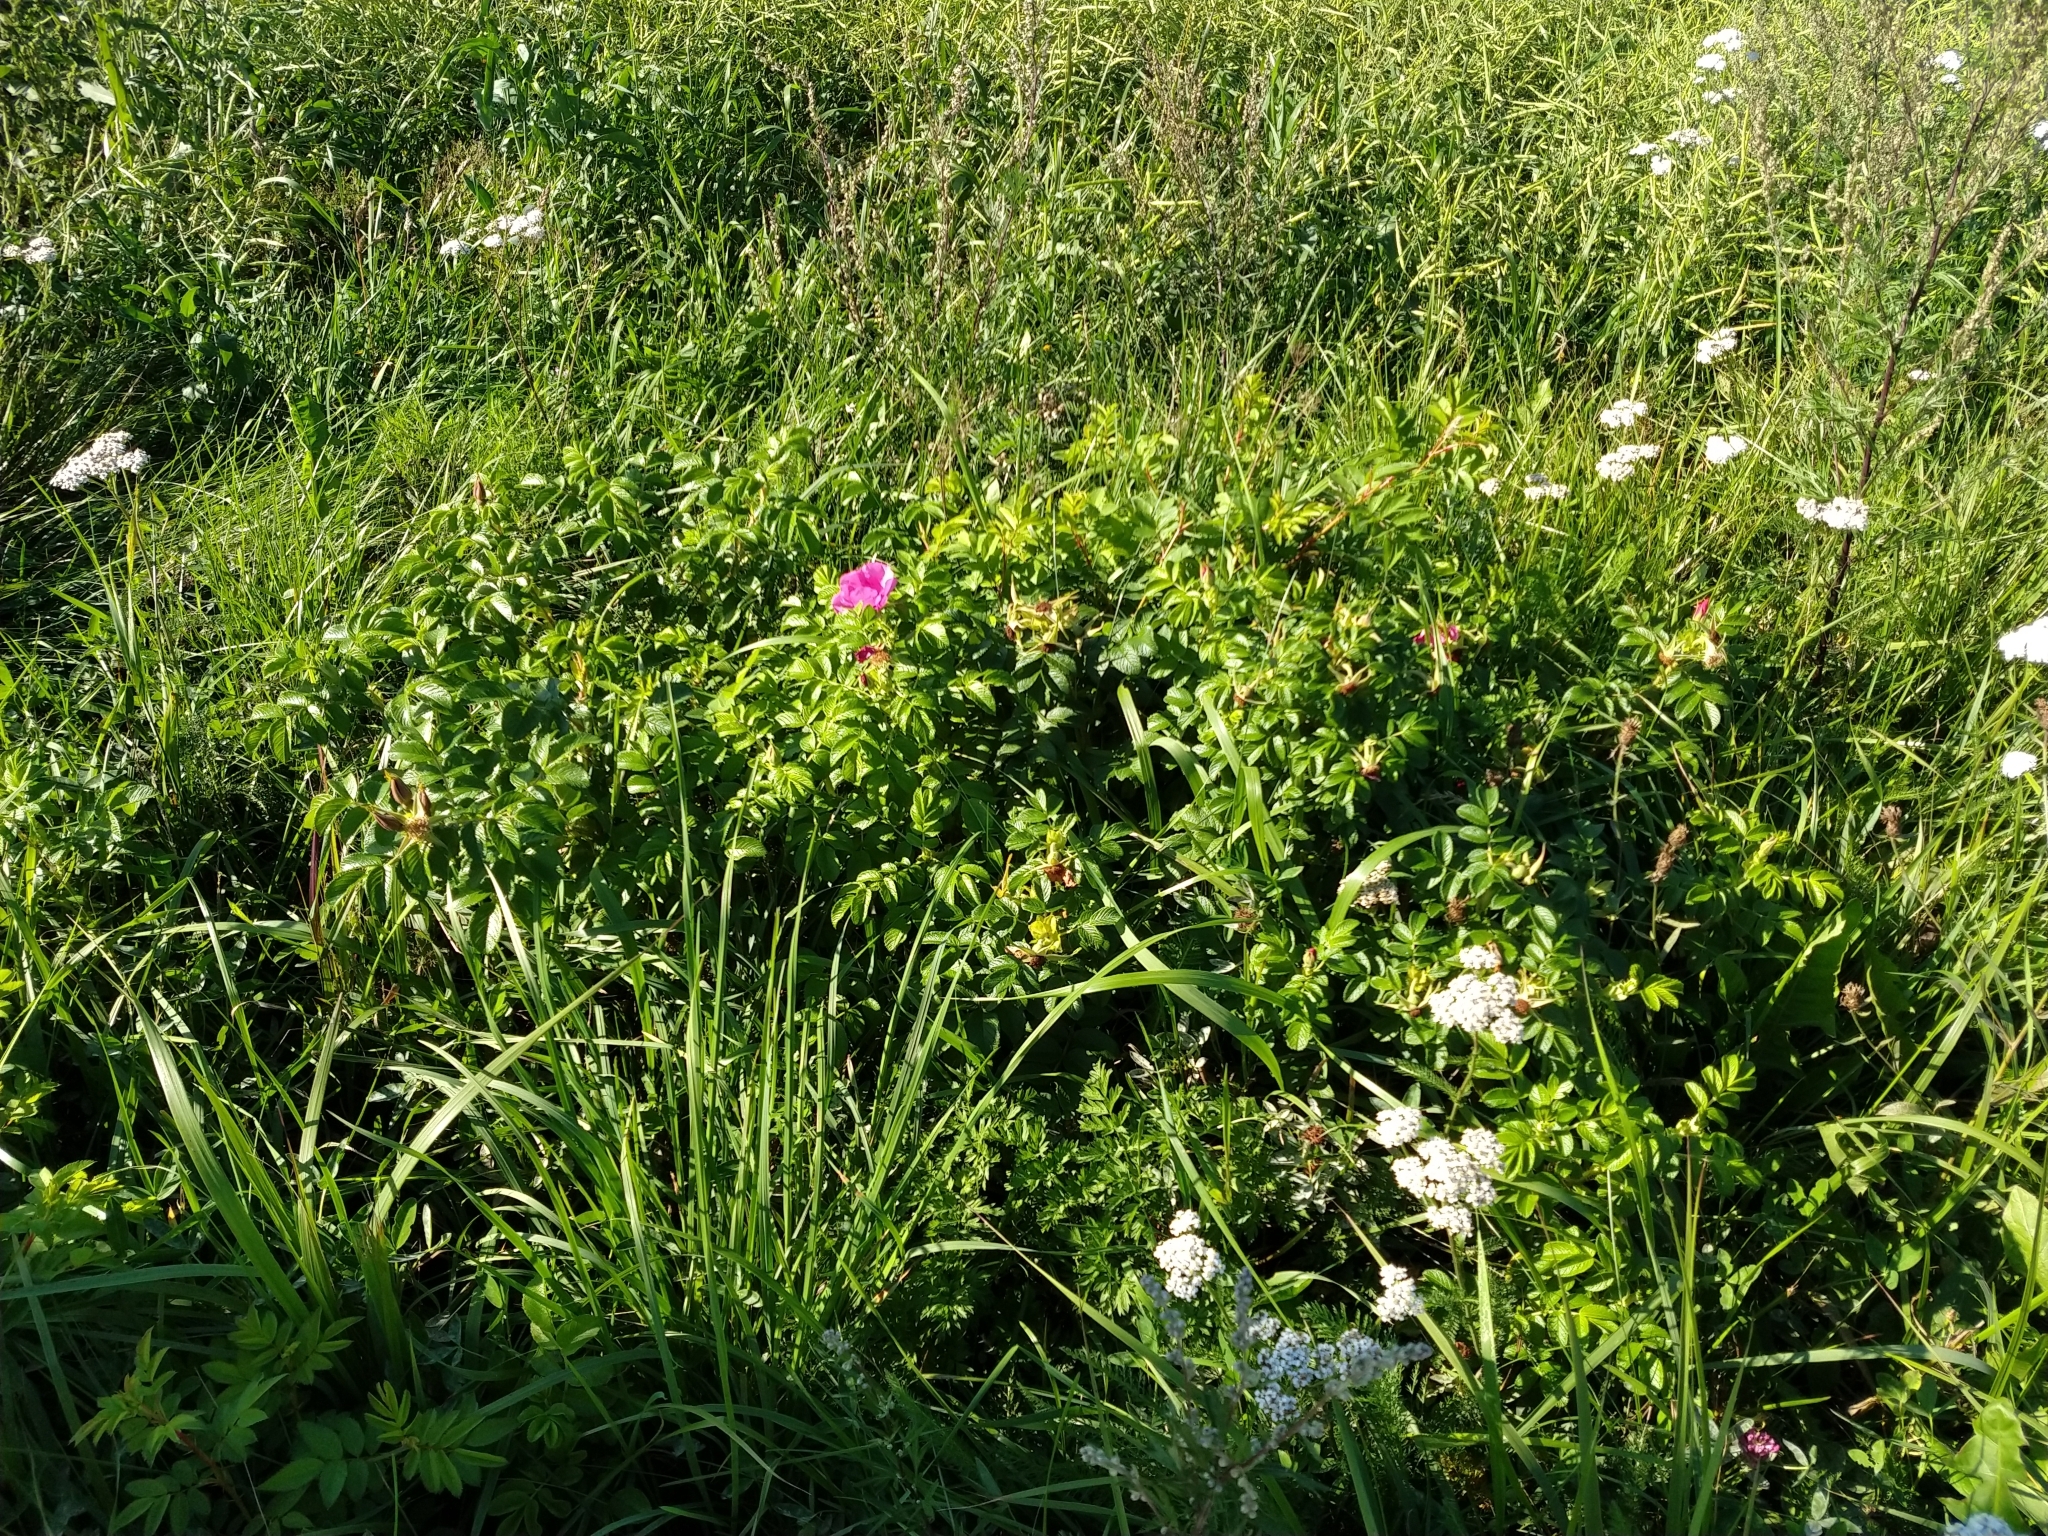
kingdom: Plantae
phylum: Tracheophyta
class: Magnoliopsida
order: Rosales
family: Rosaceae
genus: Rosa
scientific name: Rosa rugosa
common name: Japanese rose
